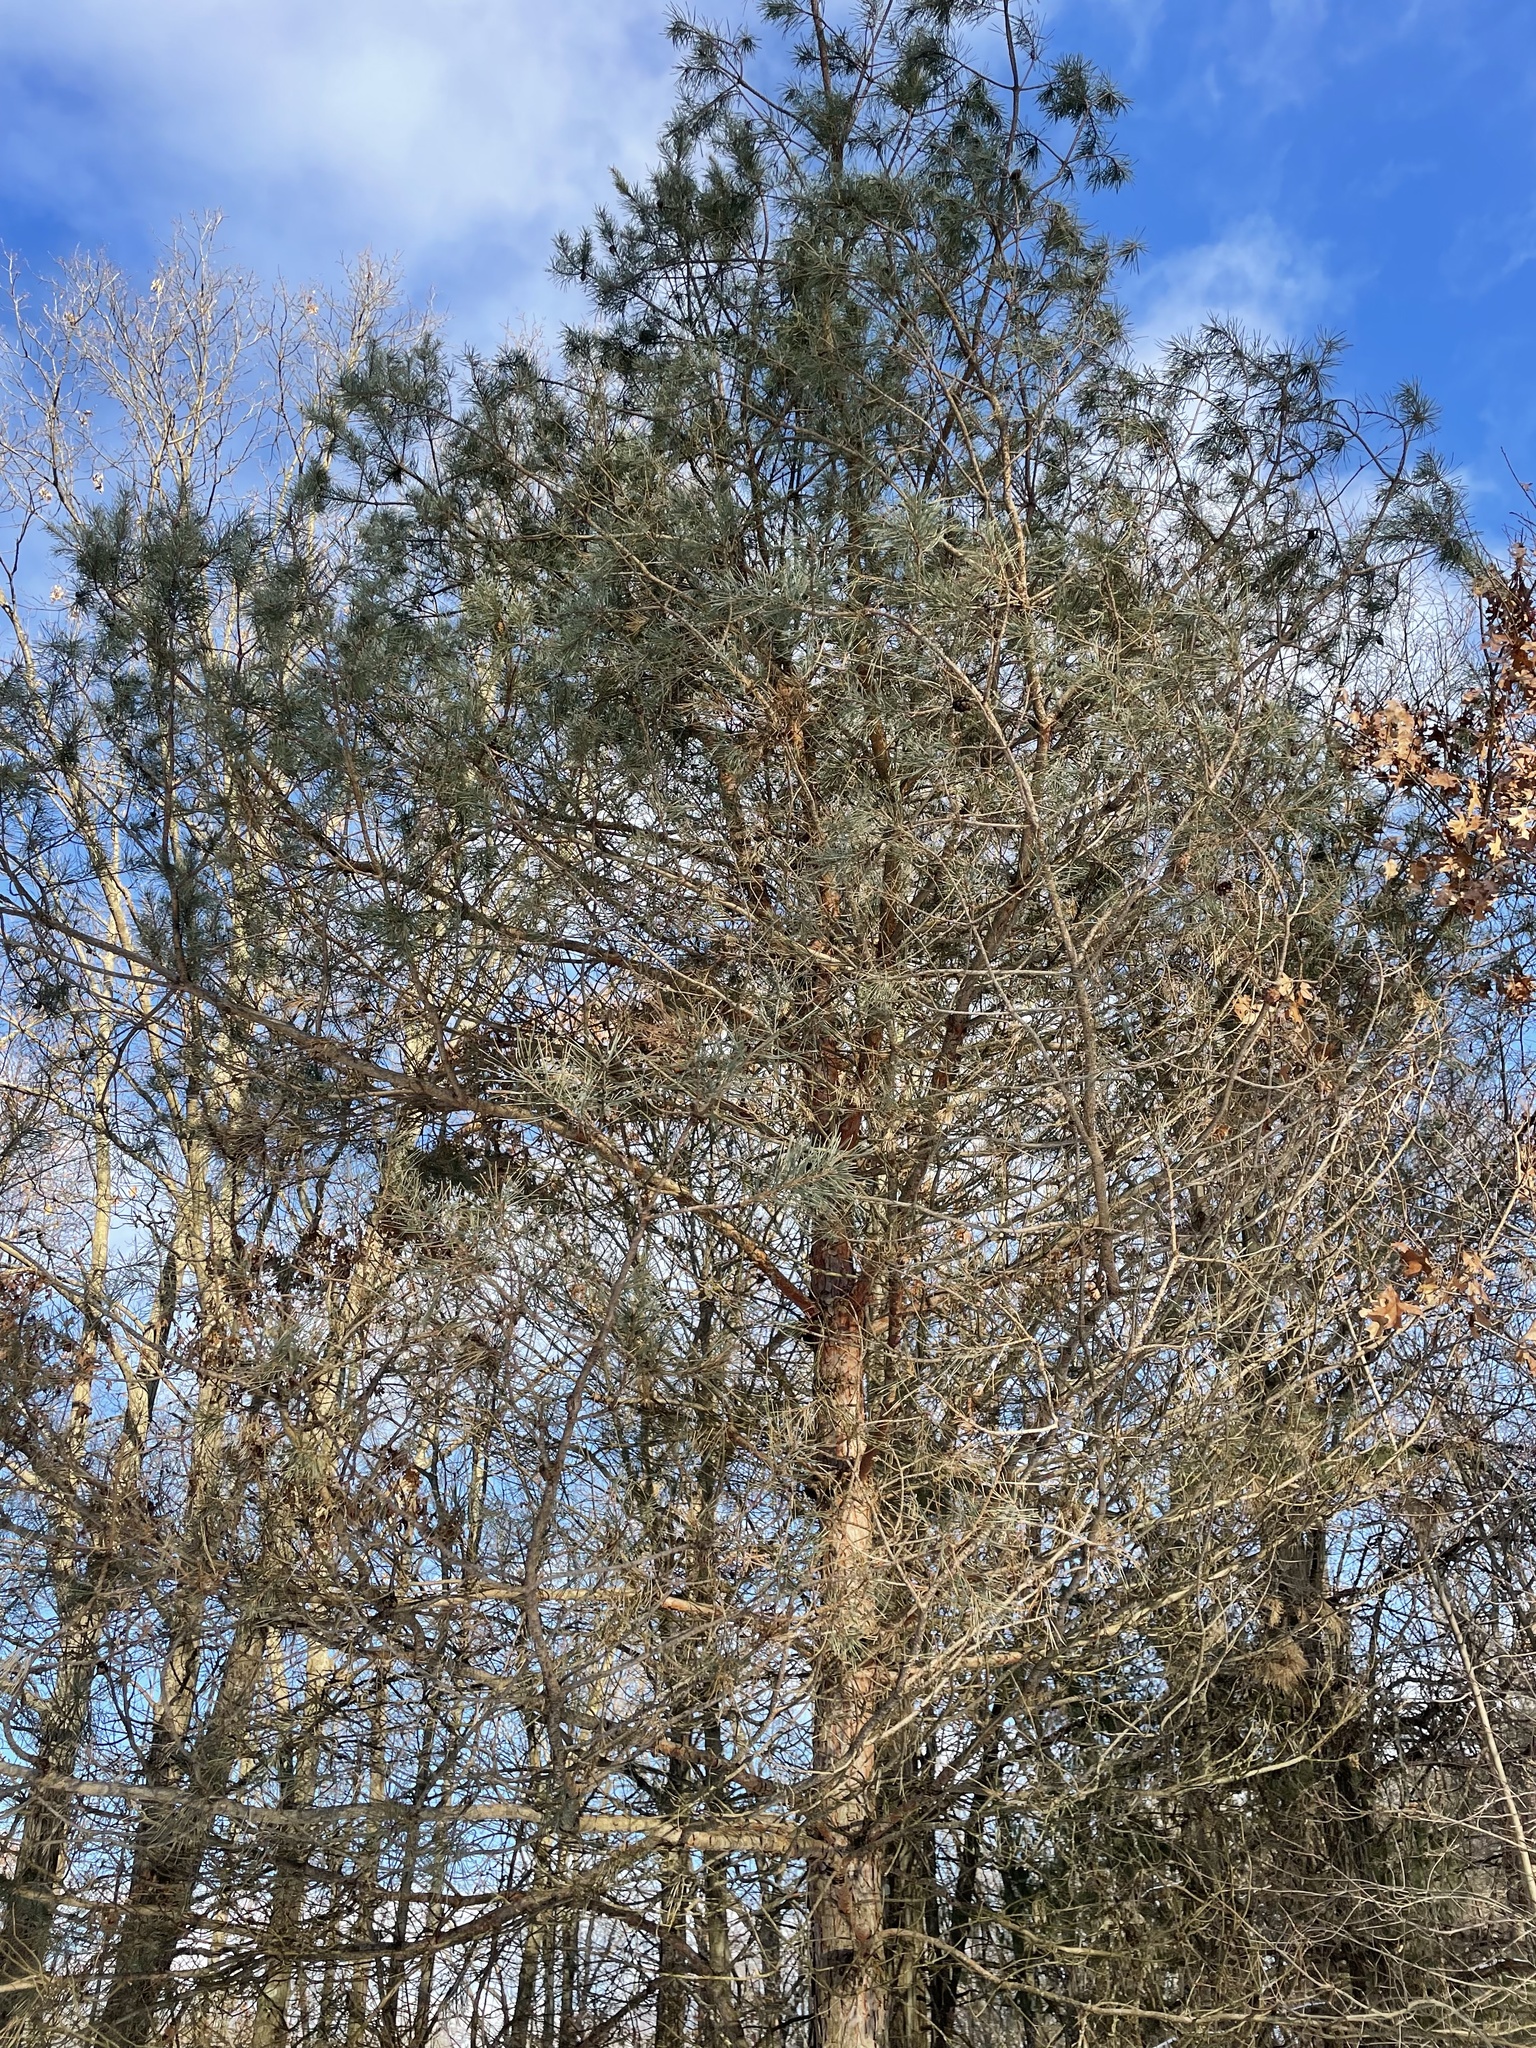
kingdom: Plantae
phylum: Tracheophyta
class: Pinopsida
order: Pinales
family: Pinaceae
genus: Pinus
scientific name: Pinus sylvestris
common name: Scots pine
